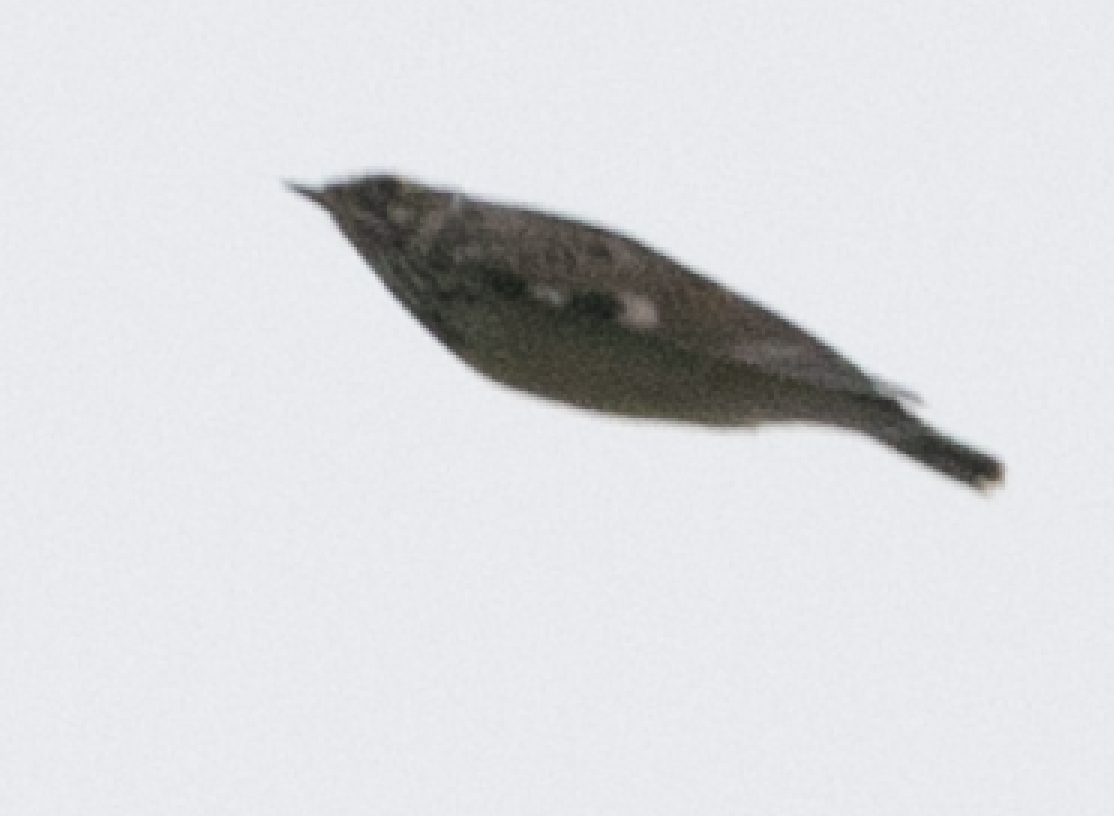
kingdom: Animalia
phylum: Chordata
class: Aves
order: Passeriformes
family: Alaudidae
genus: Lullula
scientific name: Lullula arborea
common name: Woodlark
